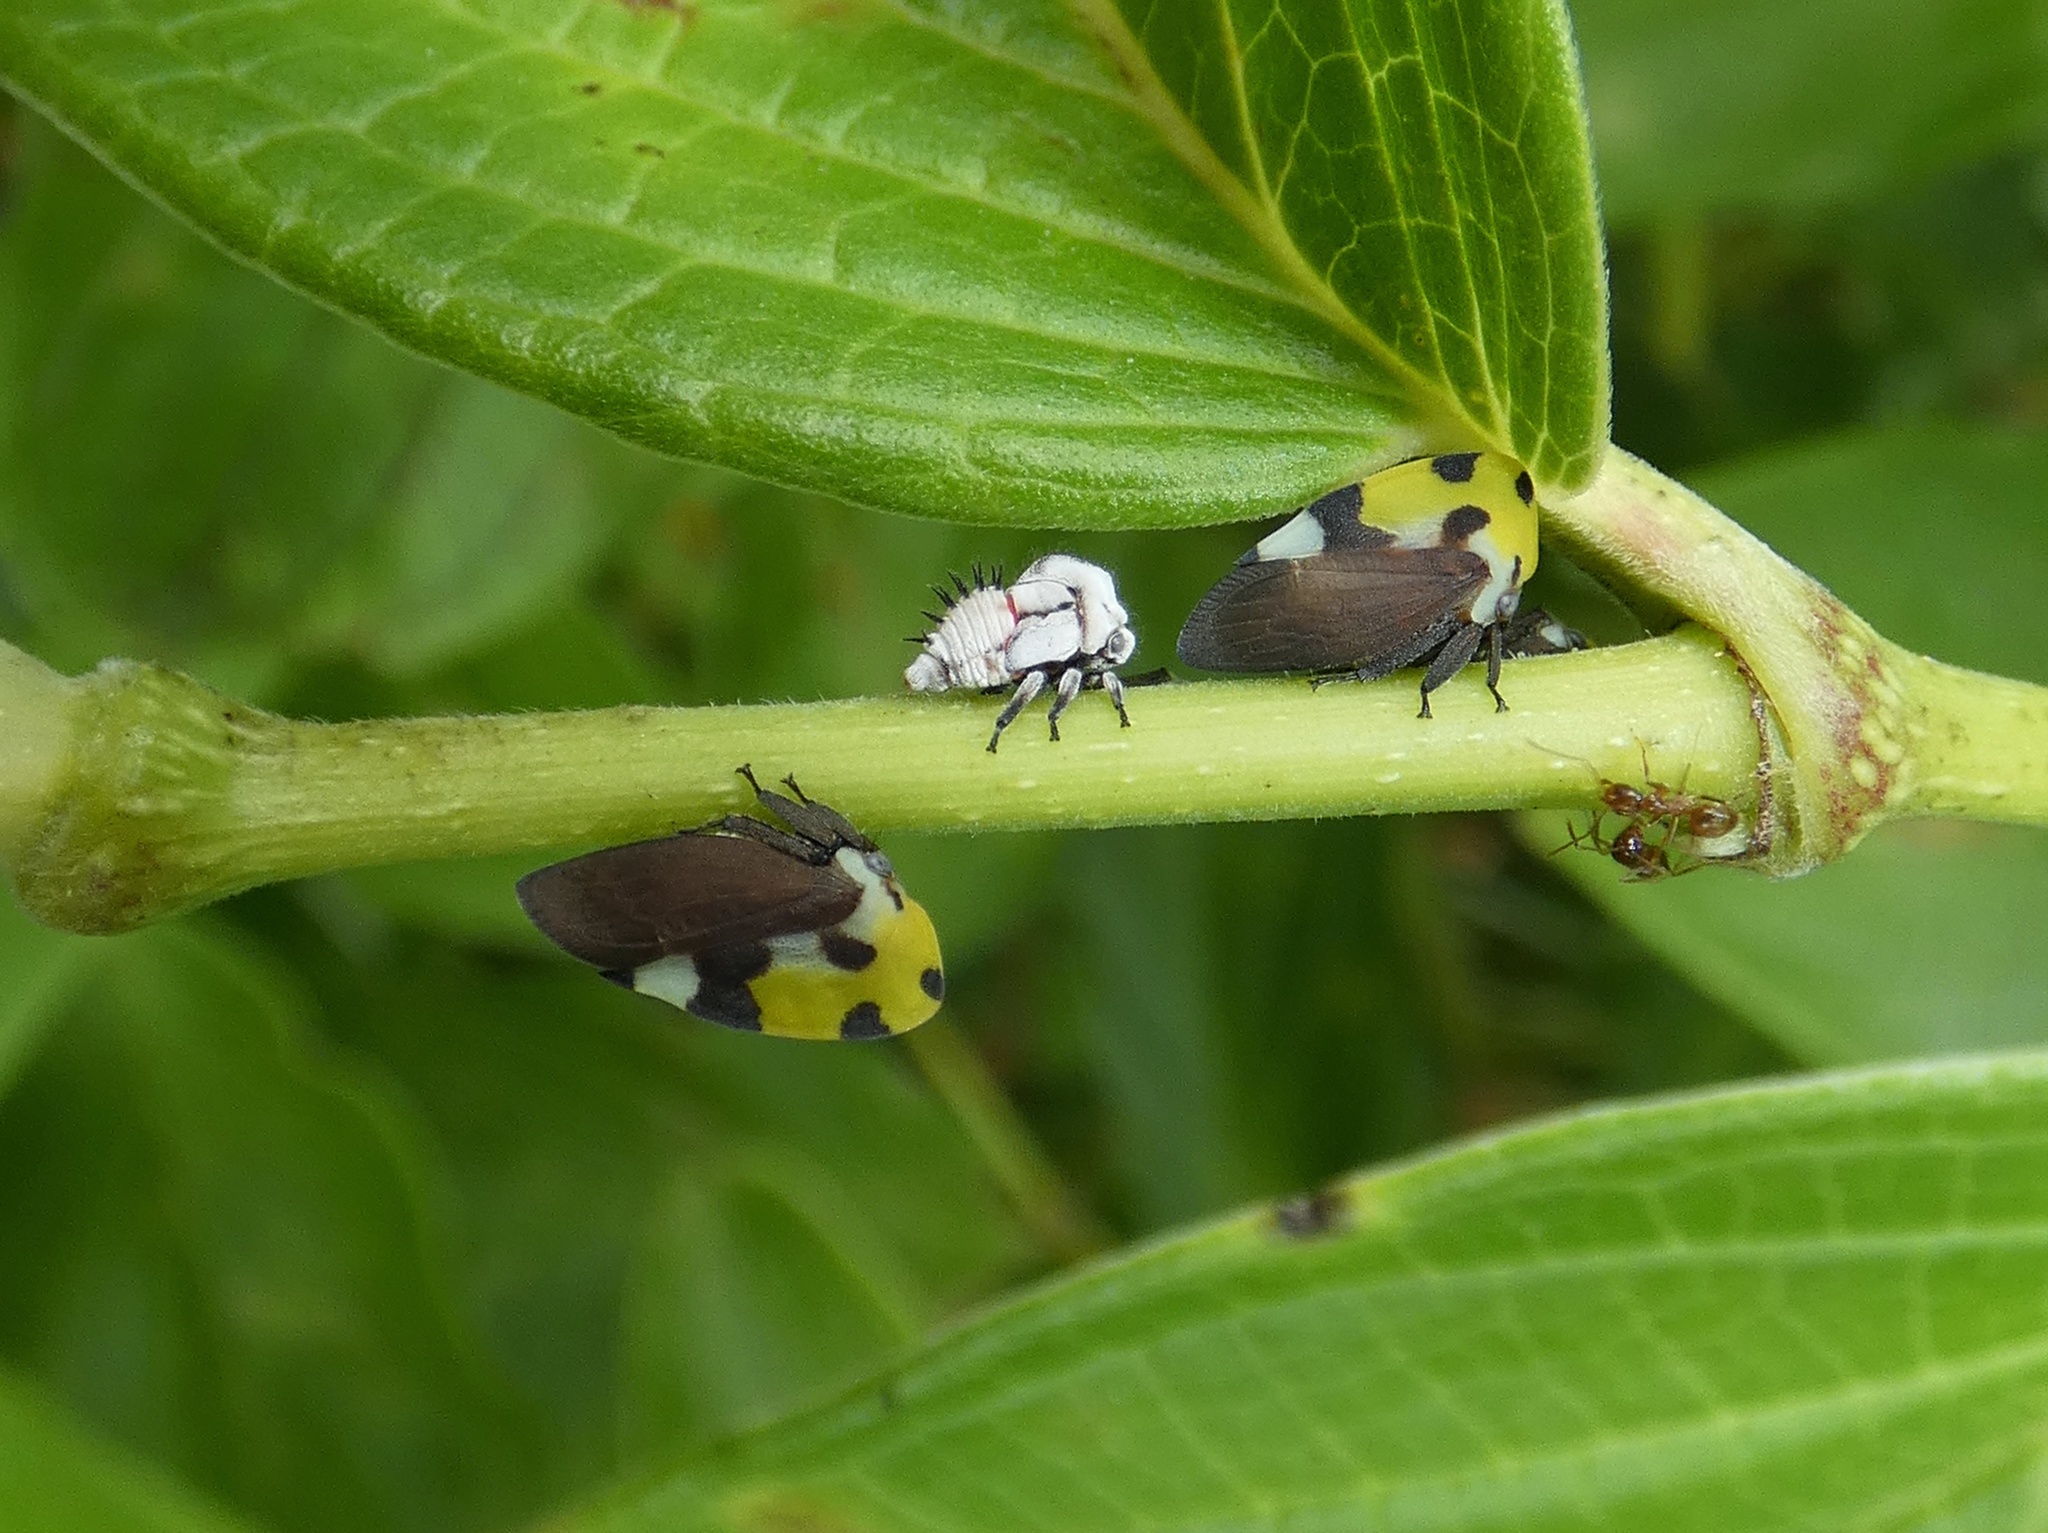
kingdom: Animalia
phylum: Arthropoda
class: Insecta
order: Hemiptera
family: Membracidae
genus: Membracis
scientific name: Membracis mexicana
